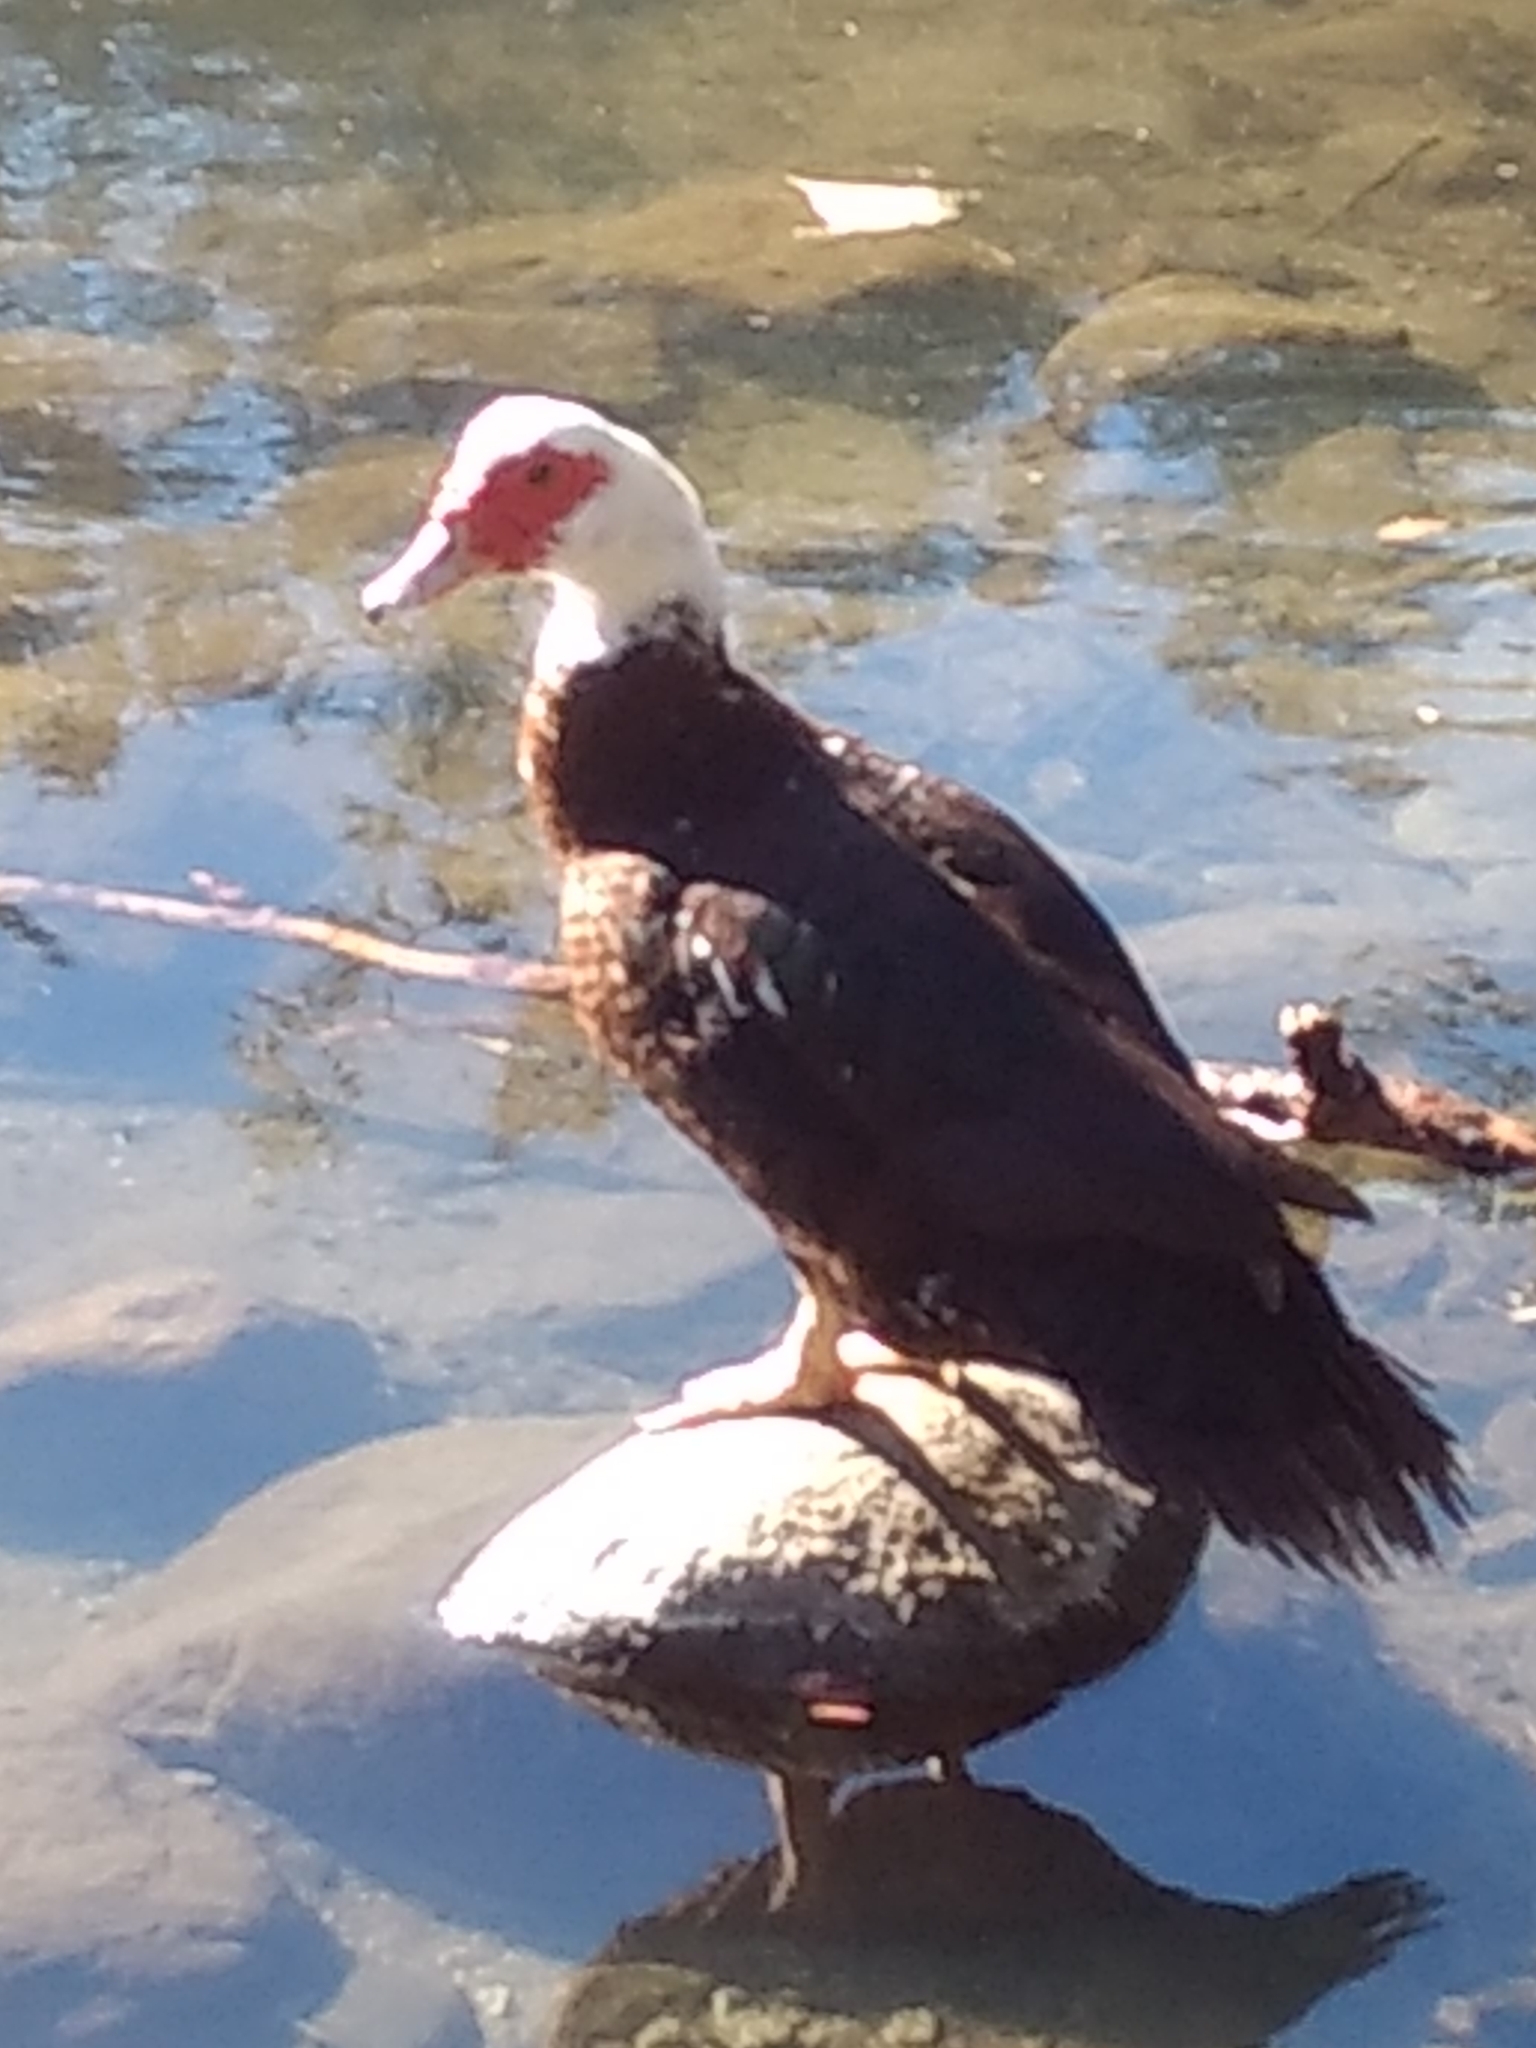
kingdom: Animalia
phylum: Chordata
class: Aves
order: Anseriformes
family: Anatidae
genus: Cairina
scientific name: Cairina moschata
